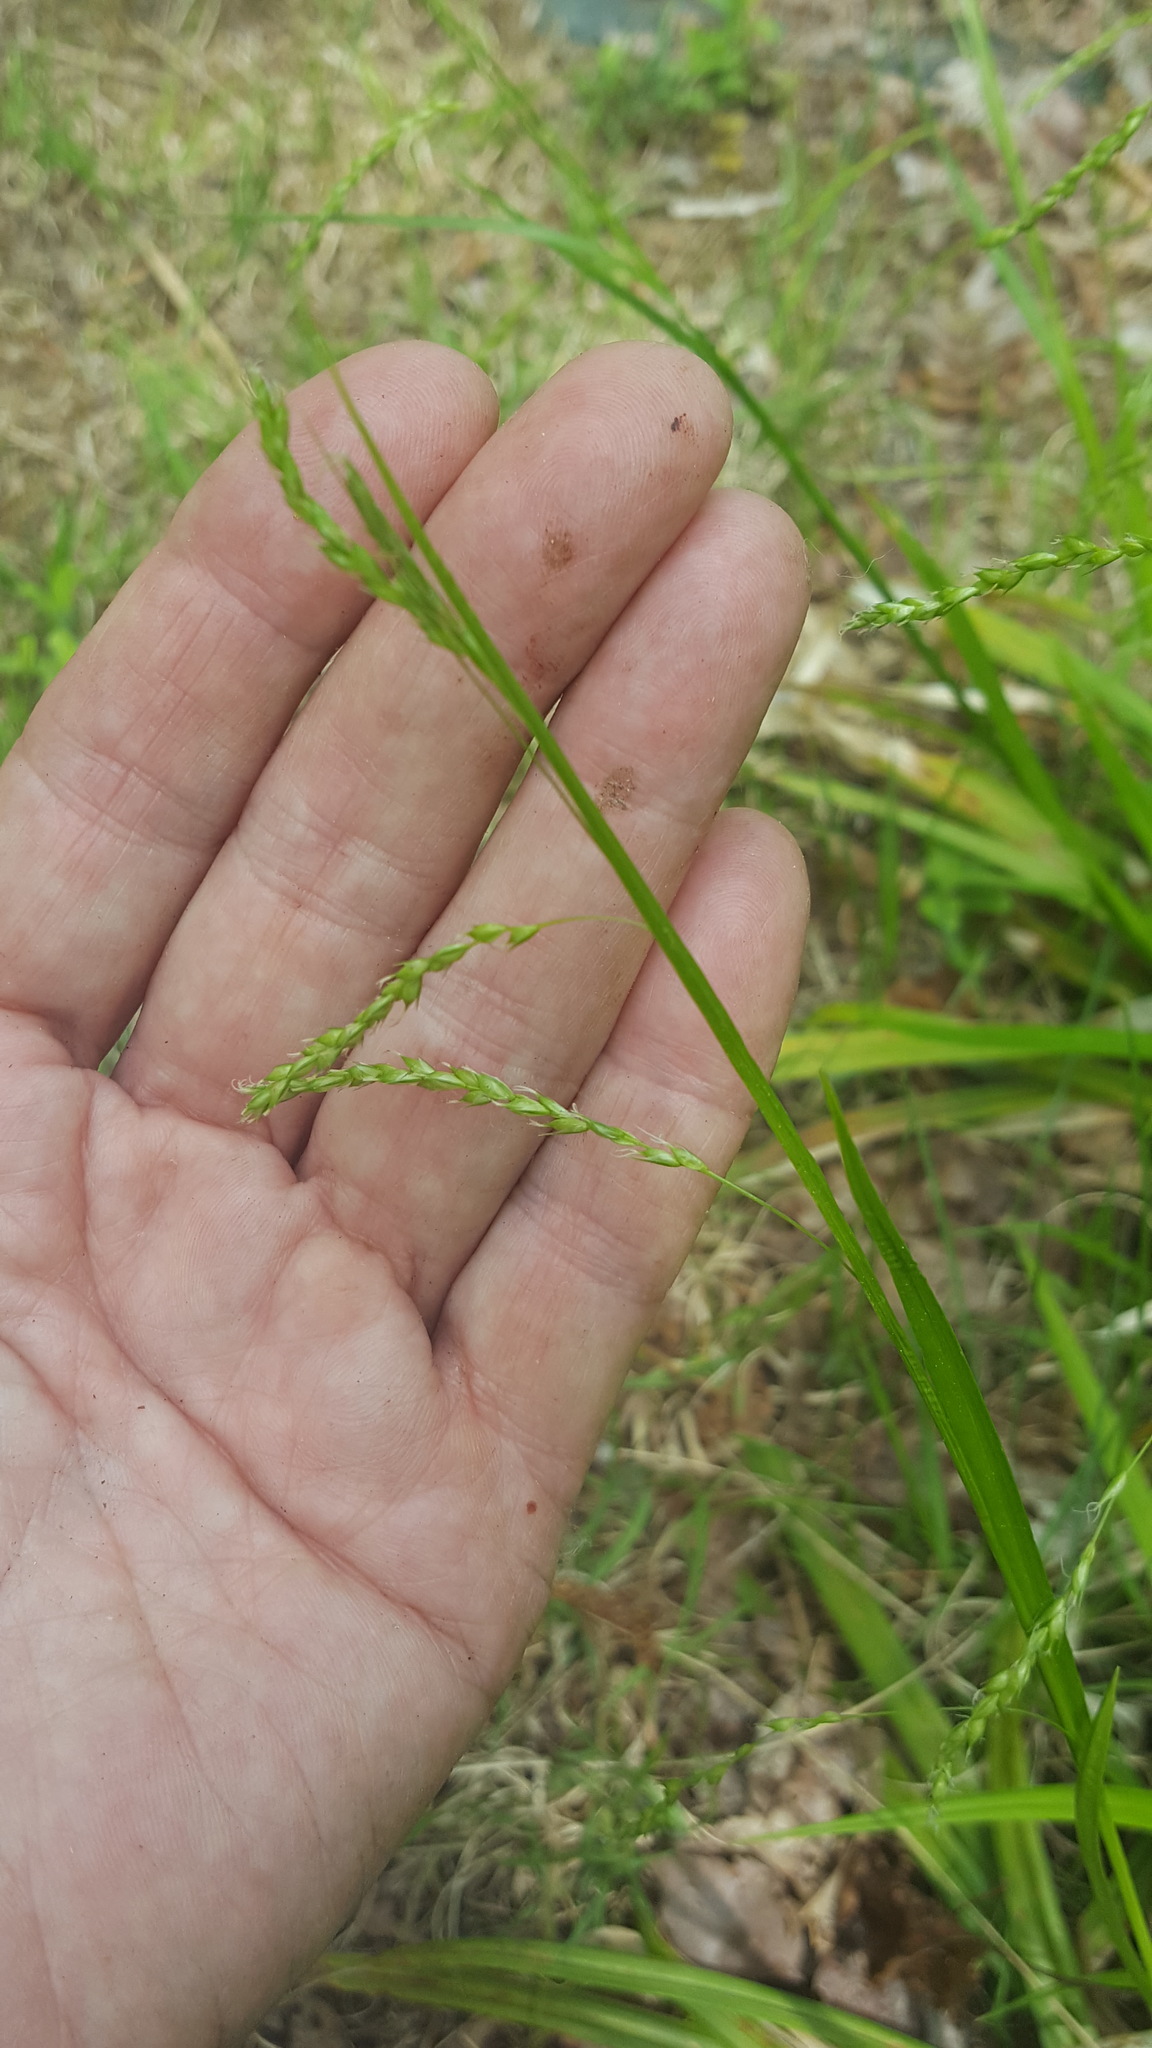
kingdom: Plantae
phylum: Tracheophyta
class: Liliopsida
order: Poales
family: Cyperaceae
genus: Carex
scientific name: Carex arctata
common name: Black sedge
